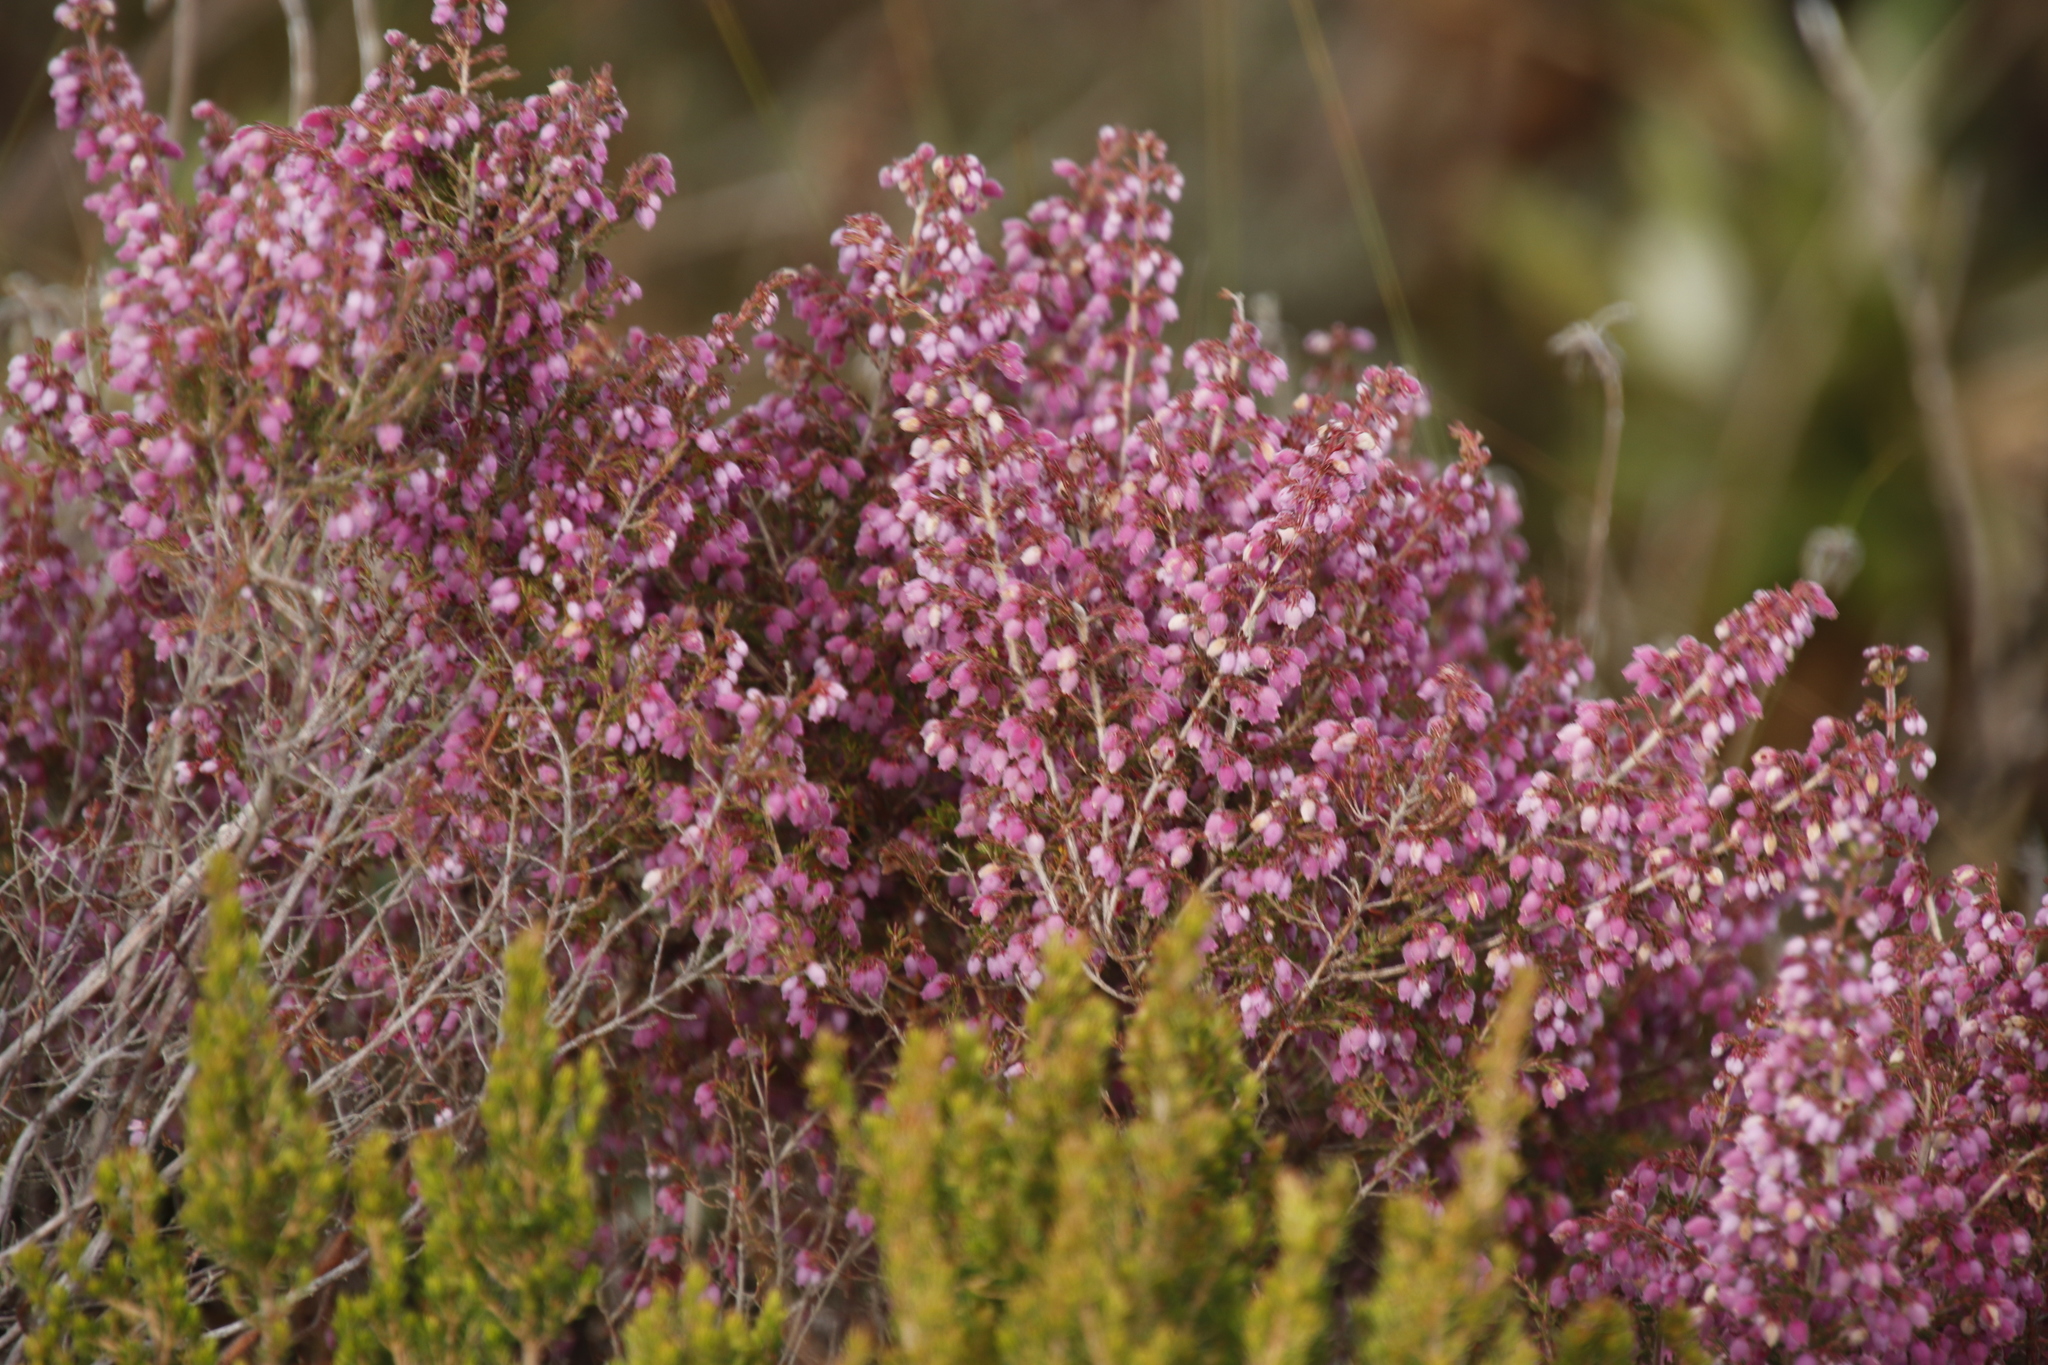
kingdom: Plantae
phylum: Tracheophyta
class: Magnoliopsida
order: Ericales
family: Ericaceae
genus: Erica
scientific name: Erica hirtiflora
